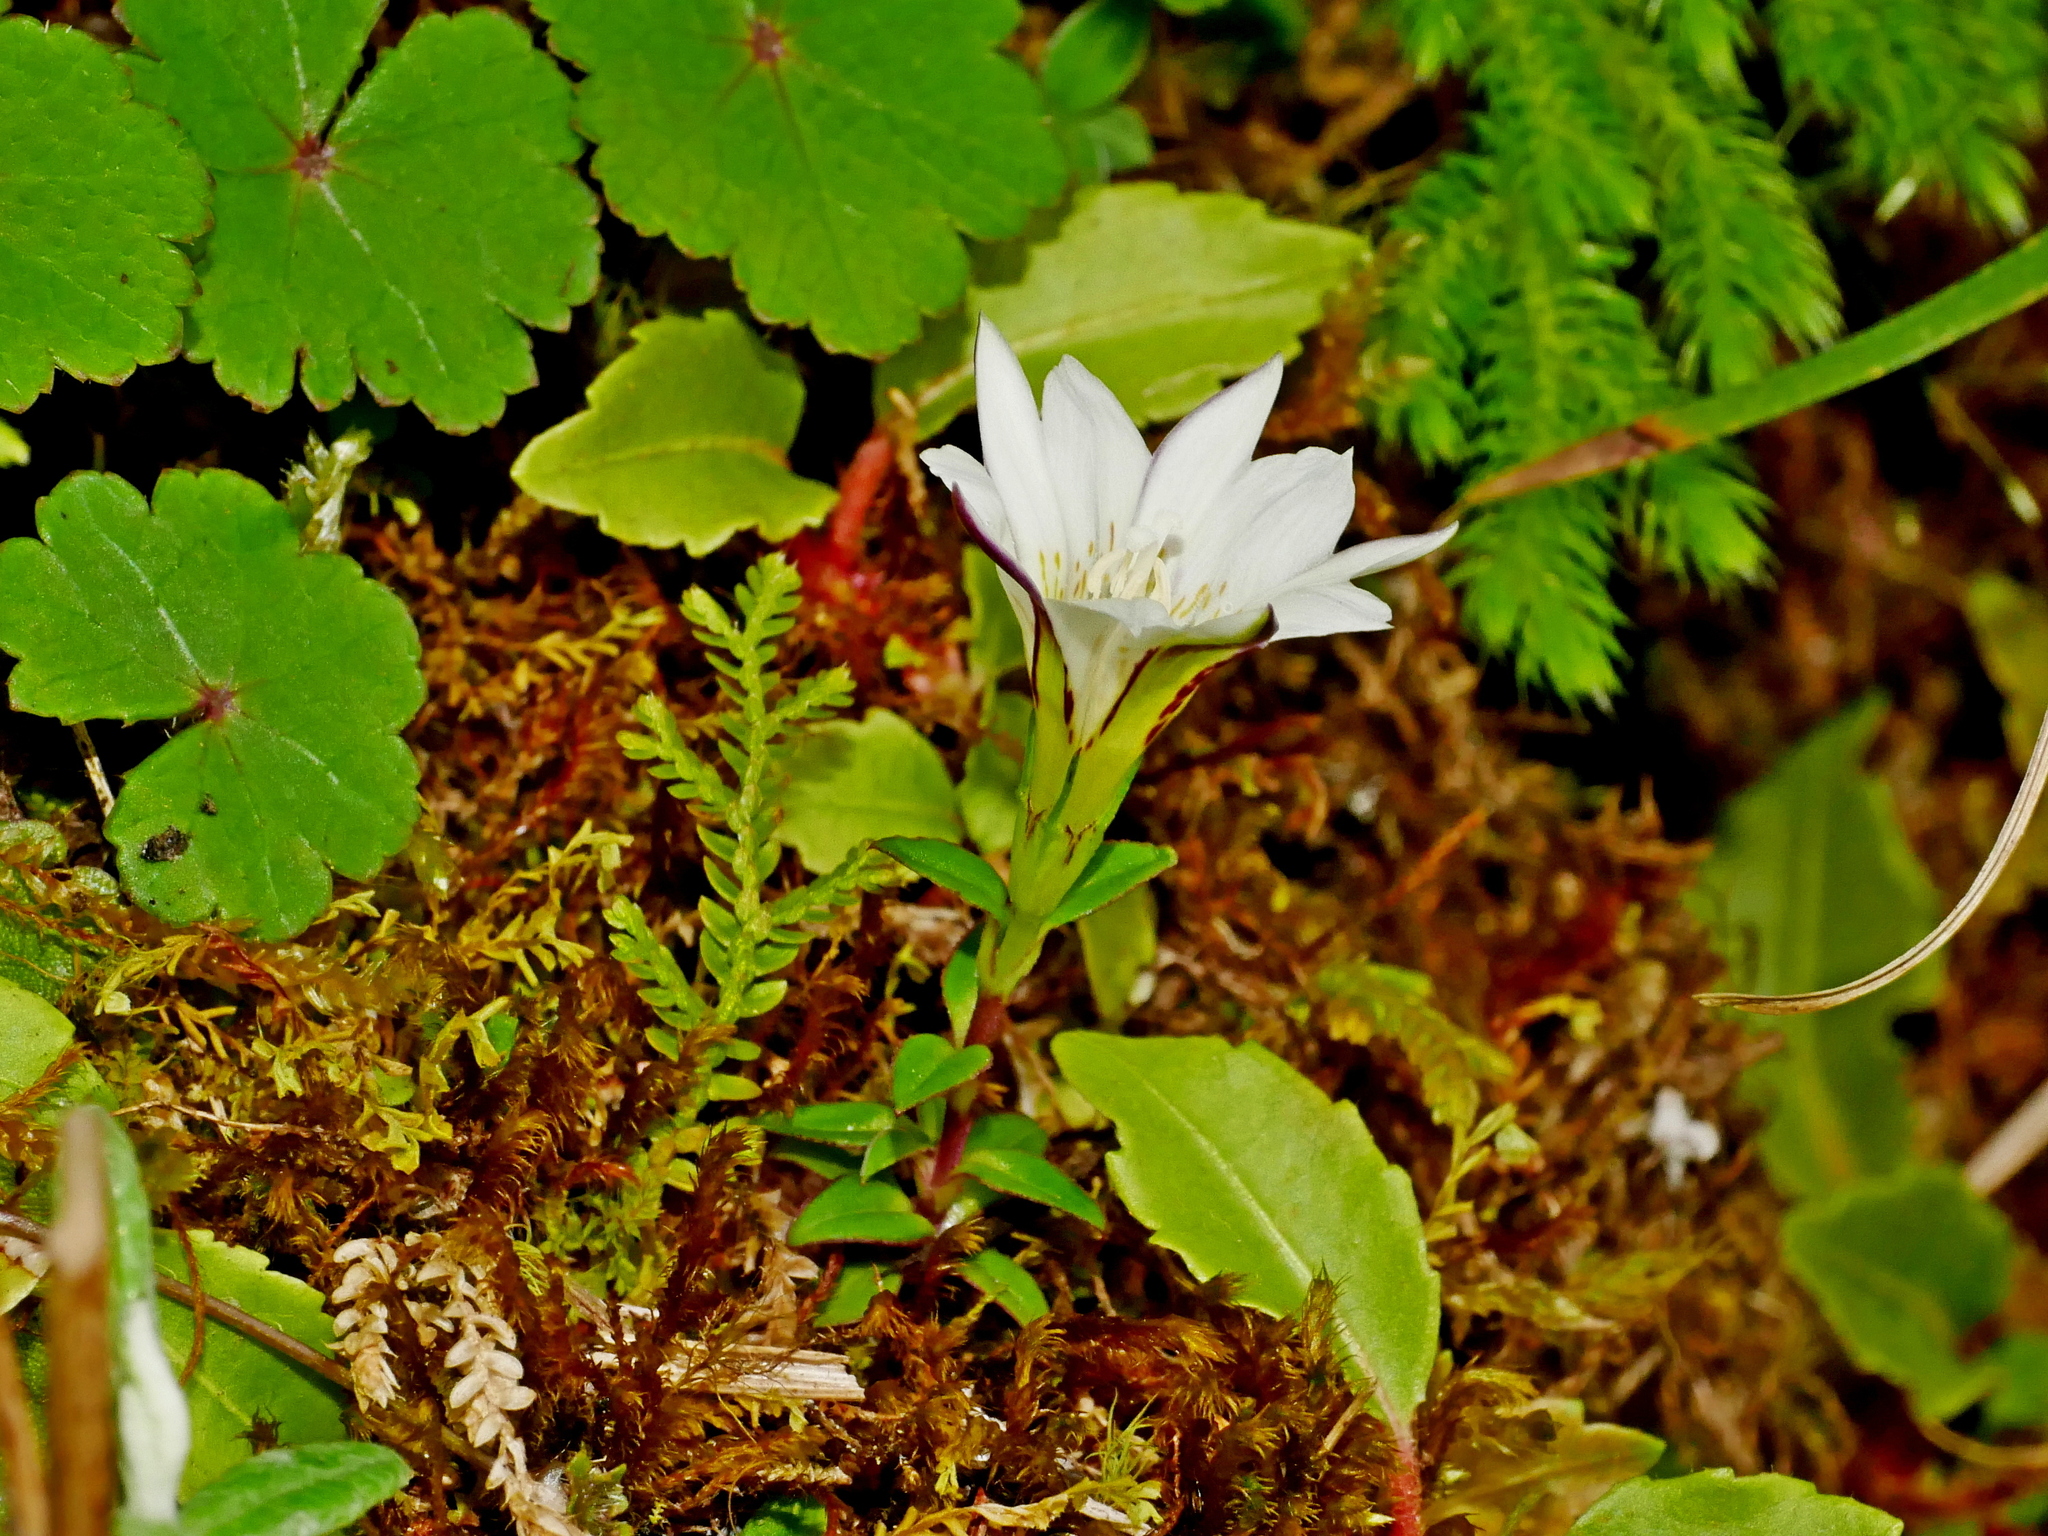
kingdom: Plantae
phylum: Tracheophyta
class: Magnoliopsida
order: Gentianales
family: Gentianaceae
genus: Gentiana
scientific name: Gentiana flavomaculata
